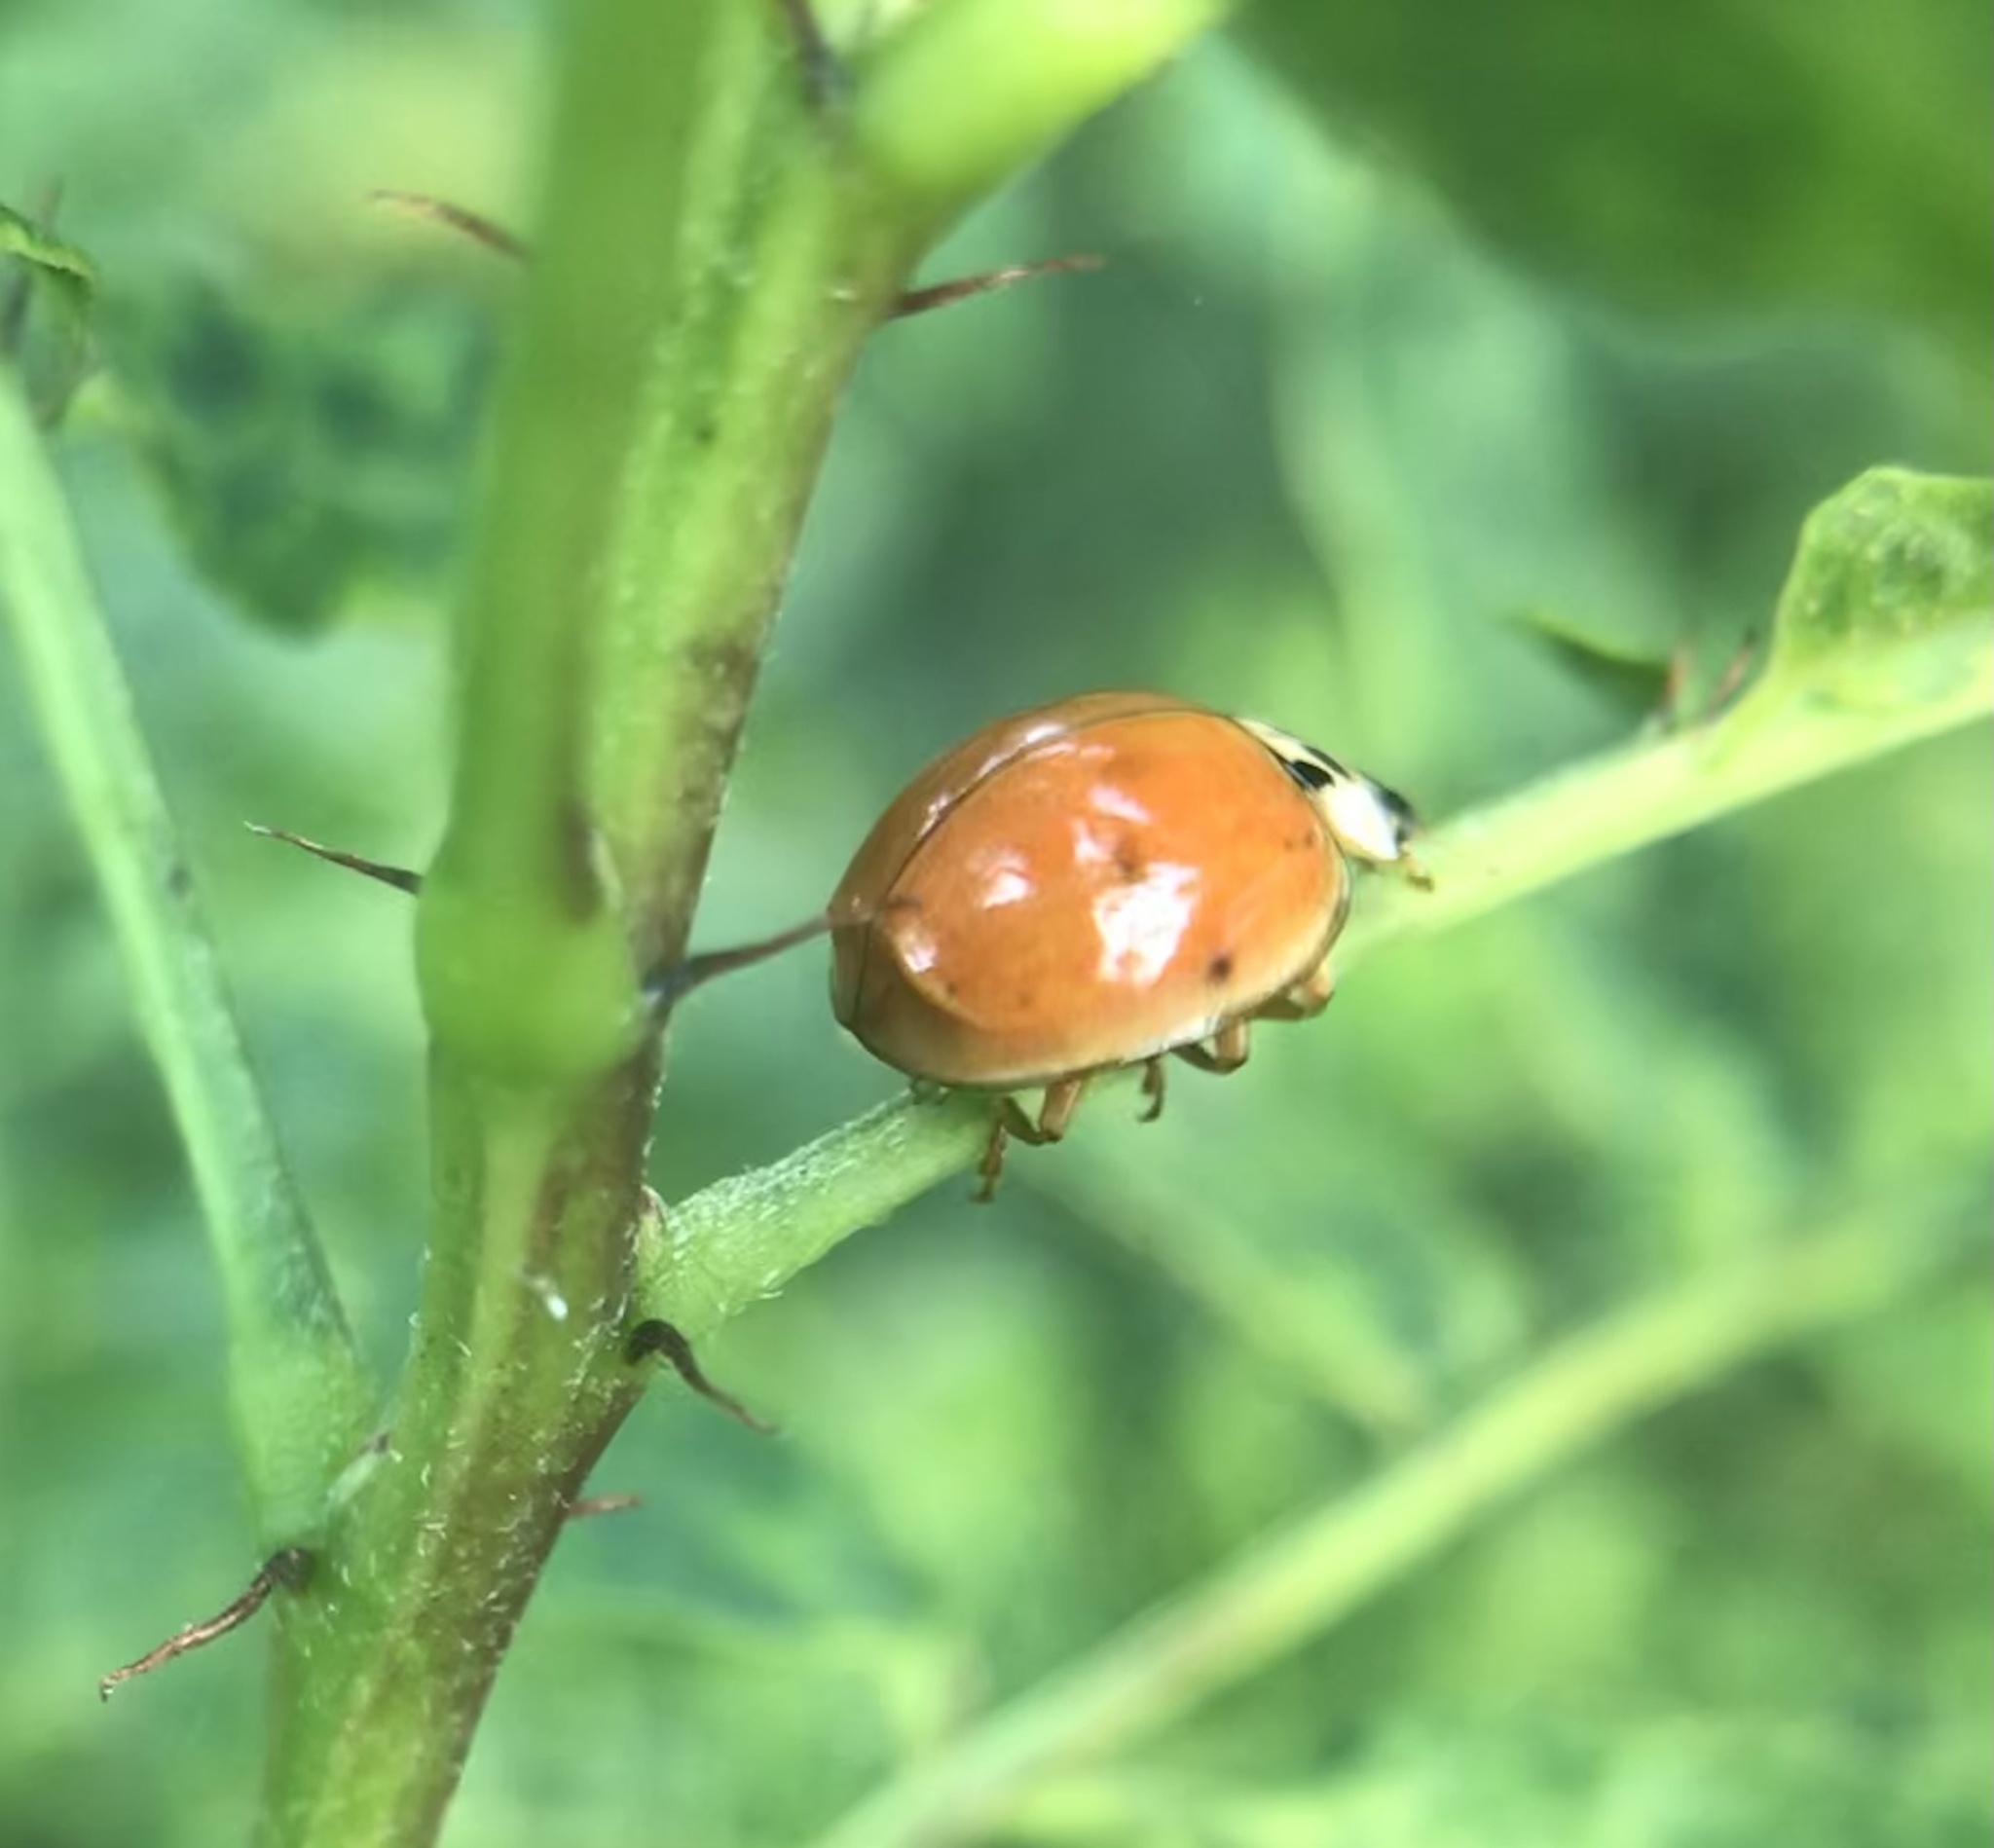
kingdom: Animalia
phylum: Arthropoda
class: Insecta
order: Coleoptera
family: Coccinellidae
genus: Harmonia
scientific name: Harmonia axyridis
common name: Harlequin ladybird
